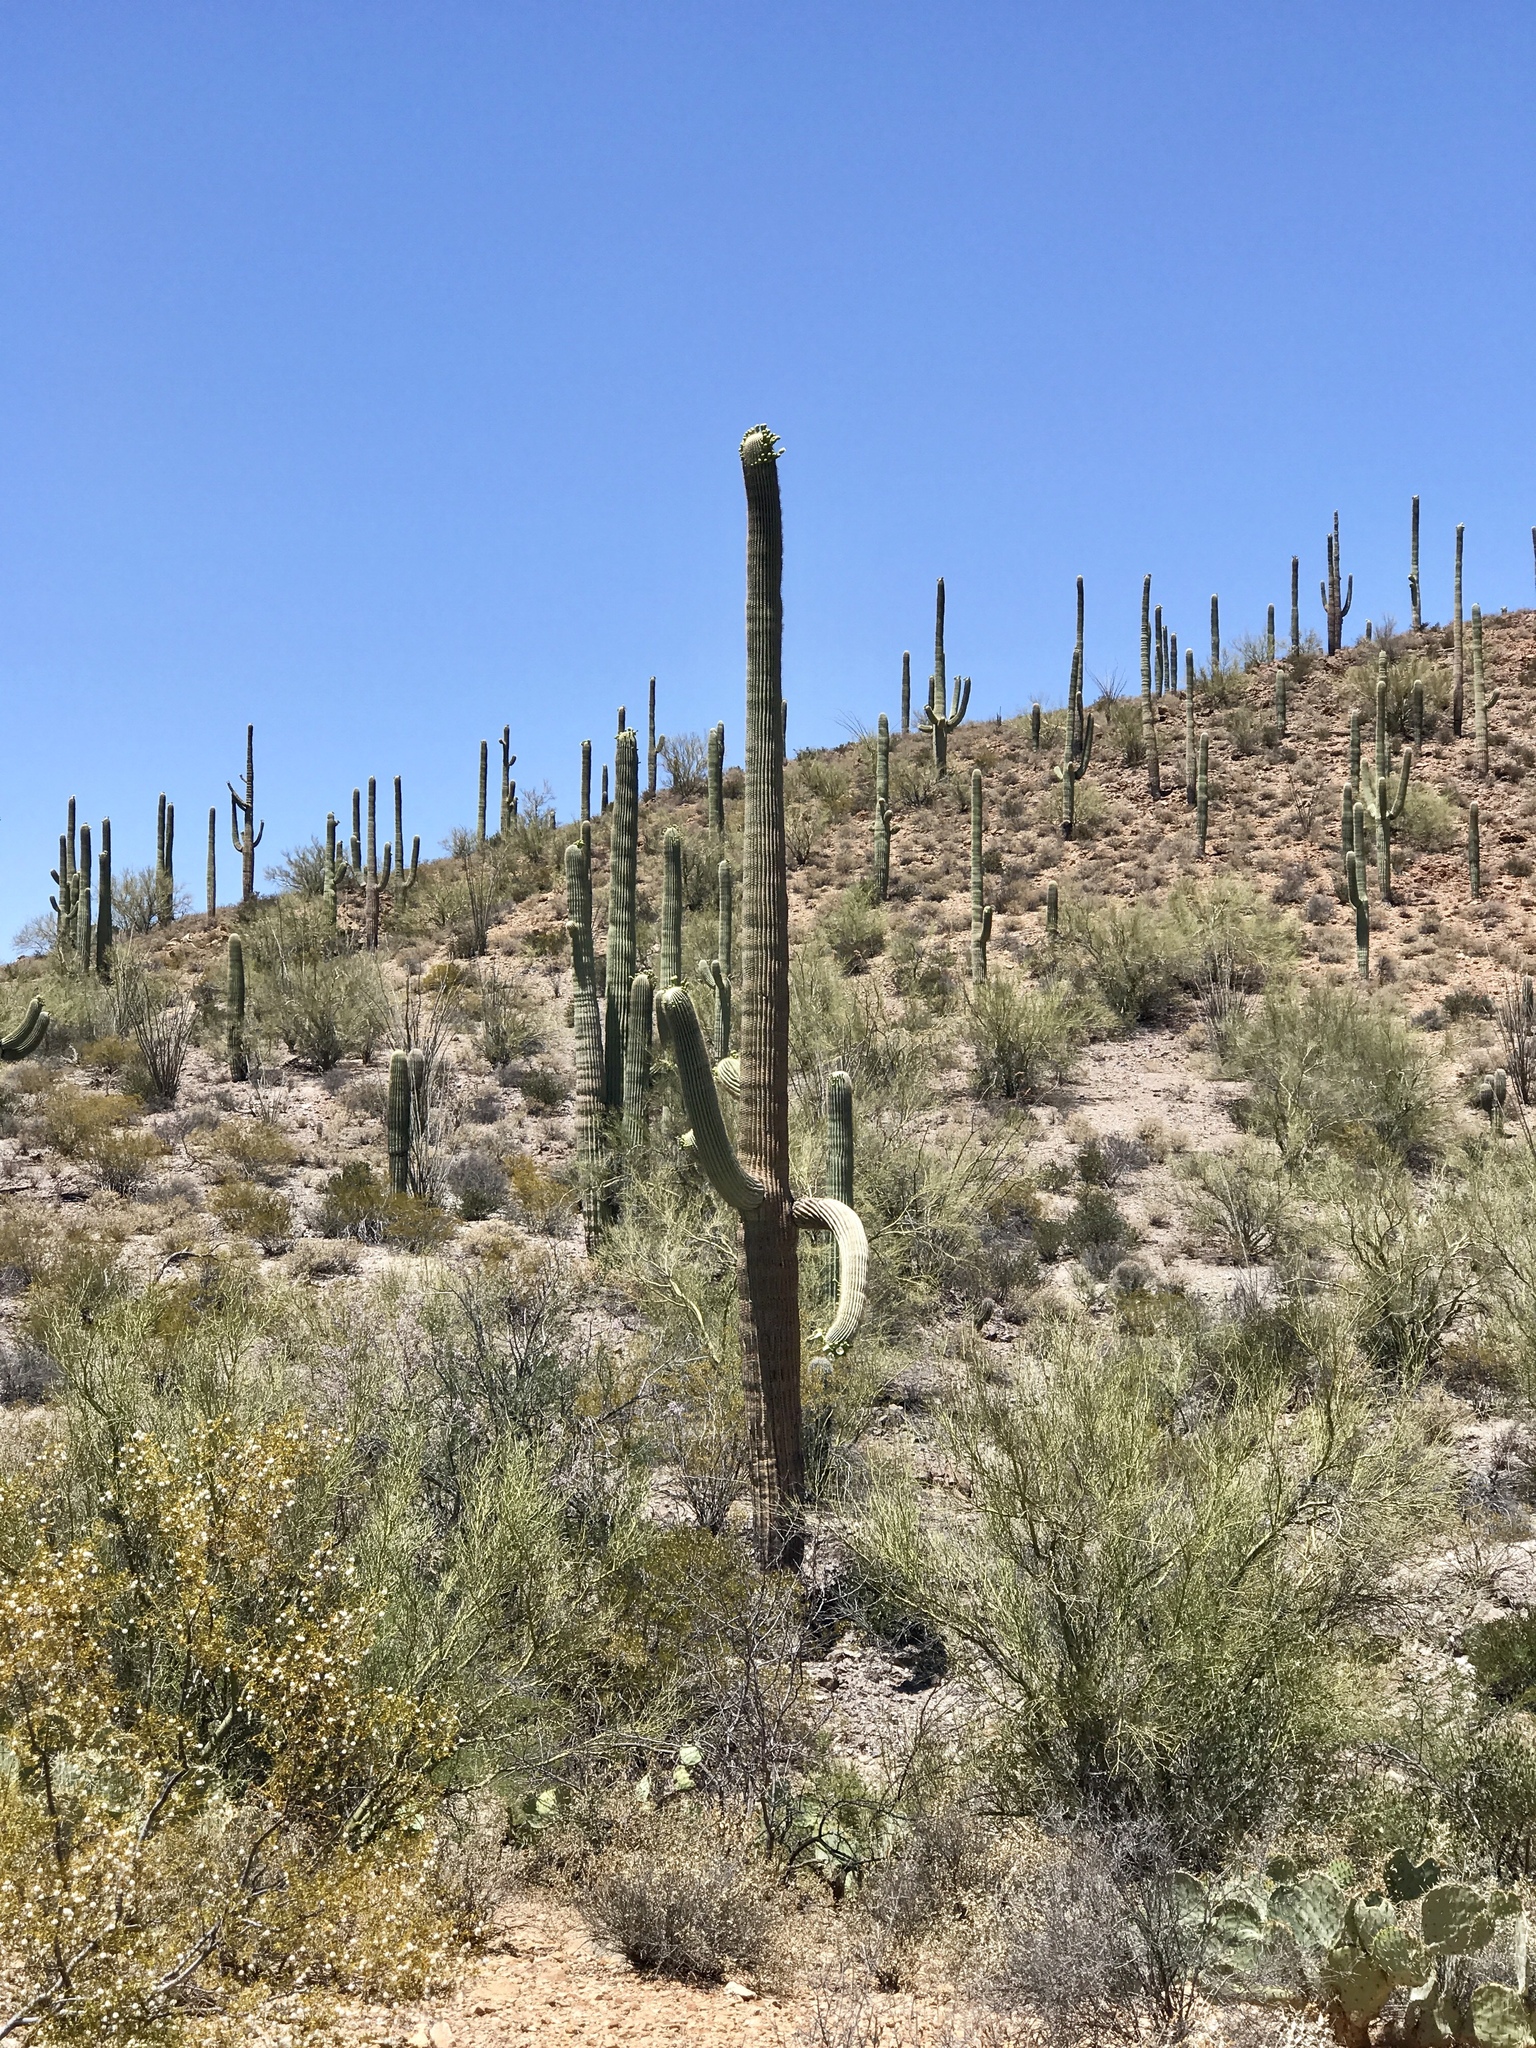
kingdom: Plantae
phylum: Tracheophyta
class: Magnoliopsida
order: Caryophyllales
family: Cactaceae
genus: Carnegiea
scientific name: Carnegiea gigantea
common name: Saguaro
